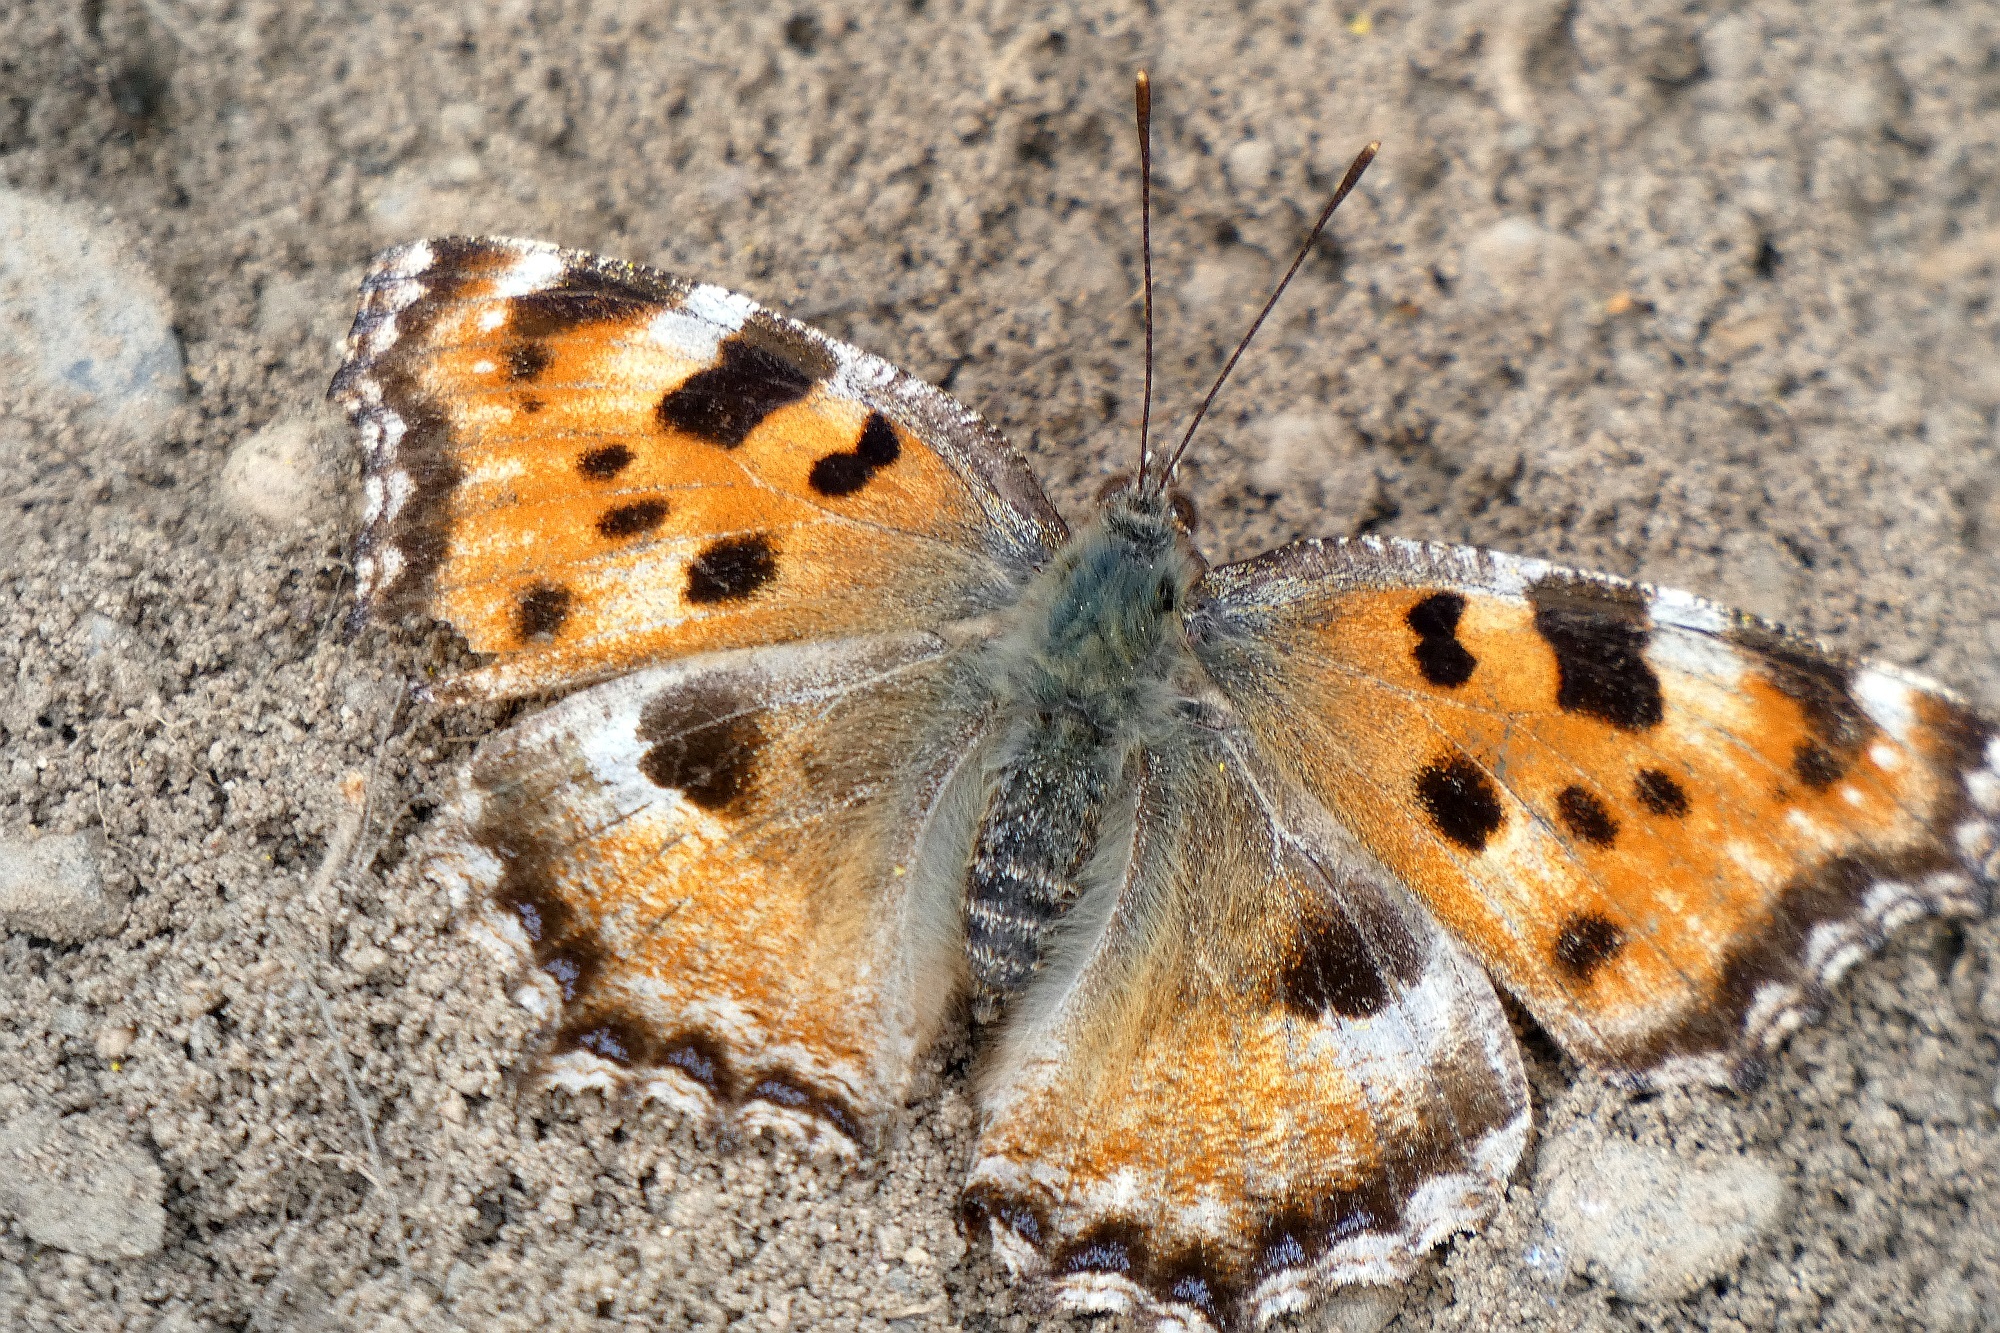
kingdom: Animalia
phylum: Arthropoda
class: Insecta
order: Lepidoptera
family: Nymphalidae
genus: Nymphalis
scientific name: Nymphalis polychloros
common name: Large tortoiseshell
